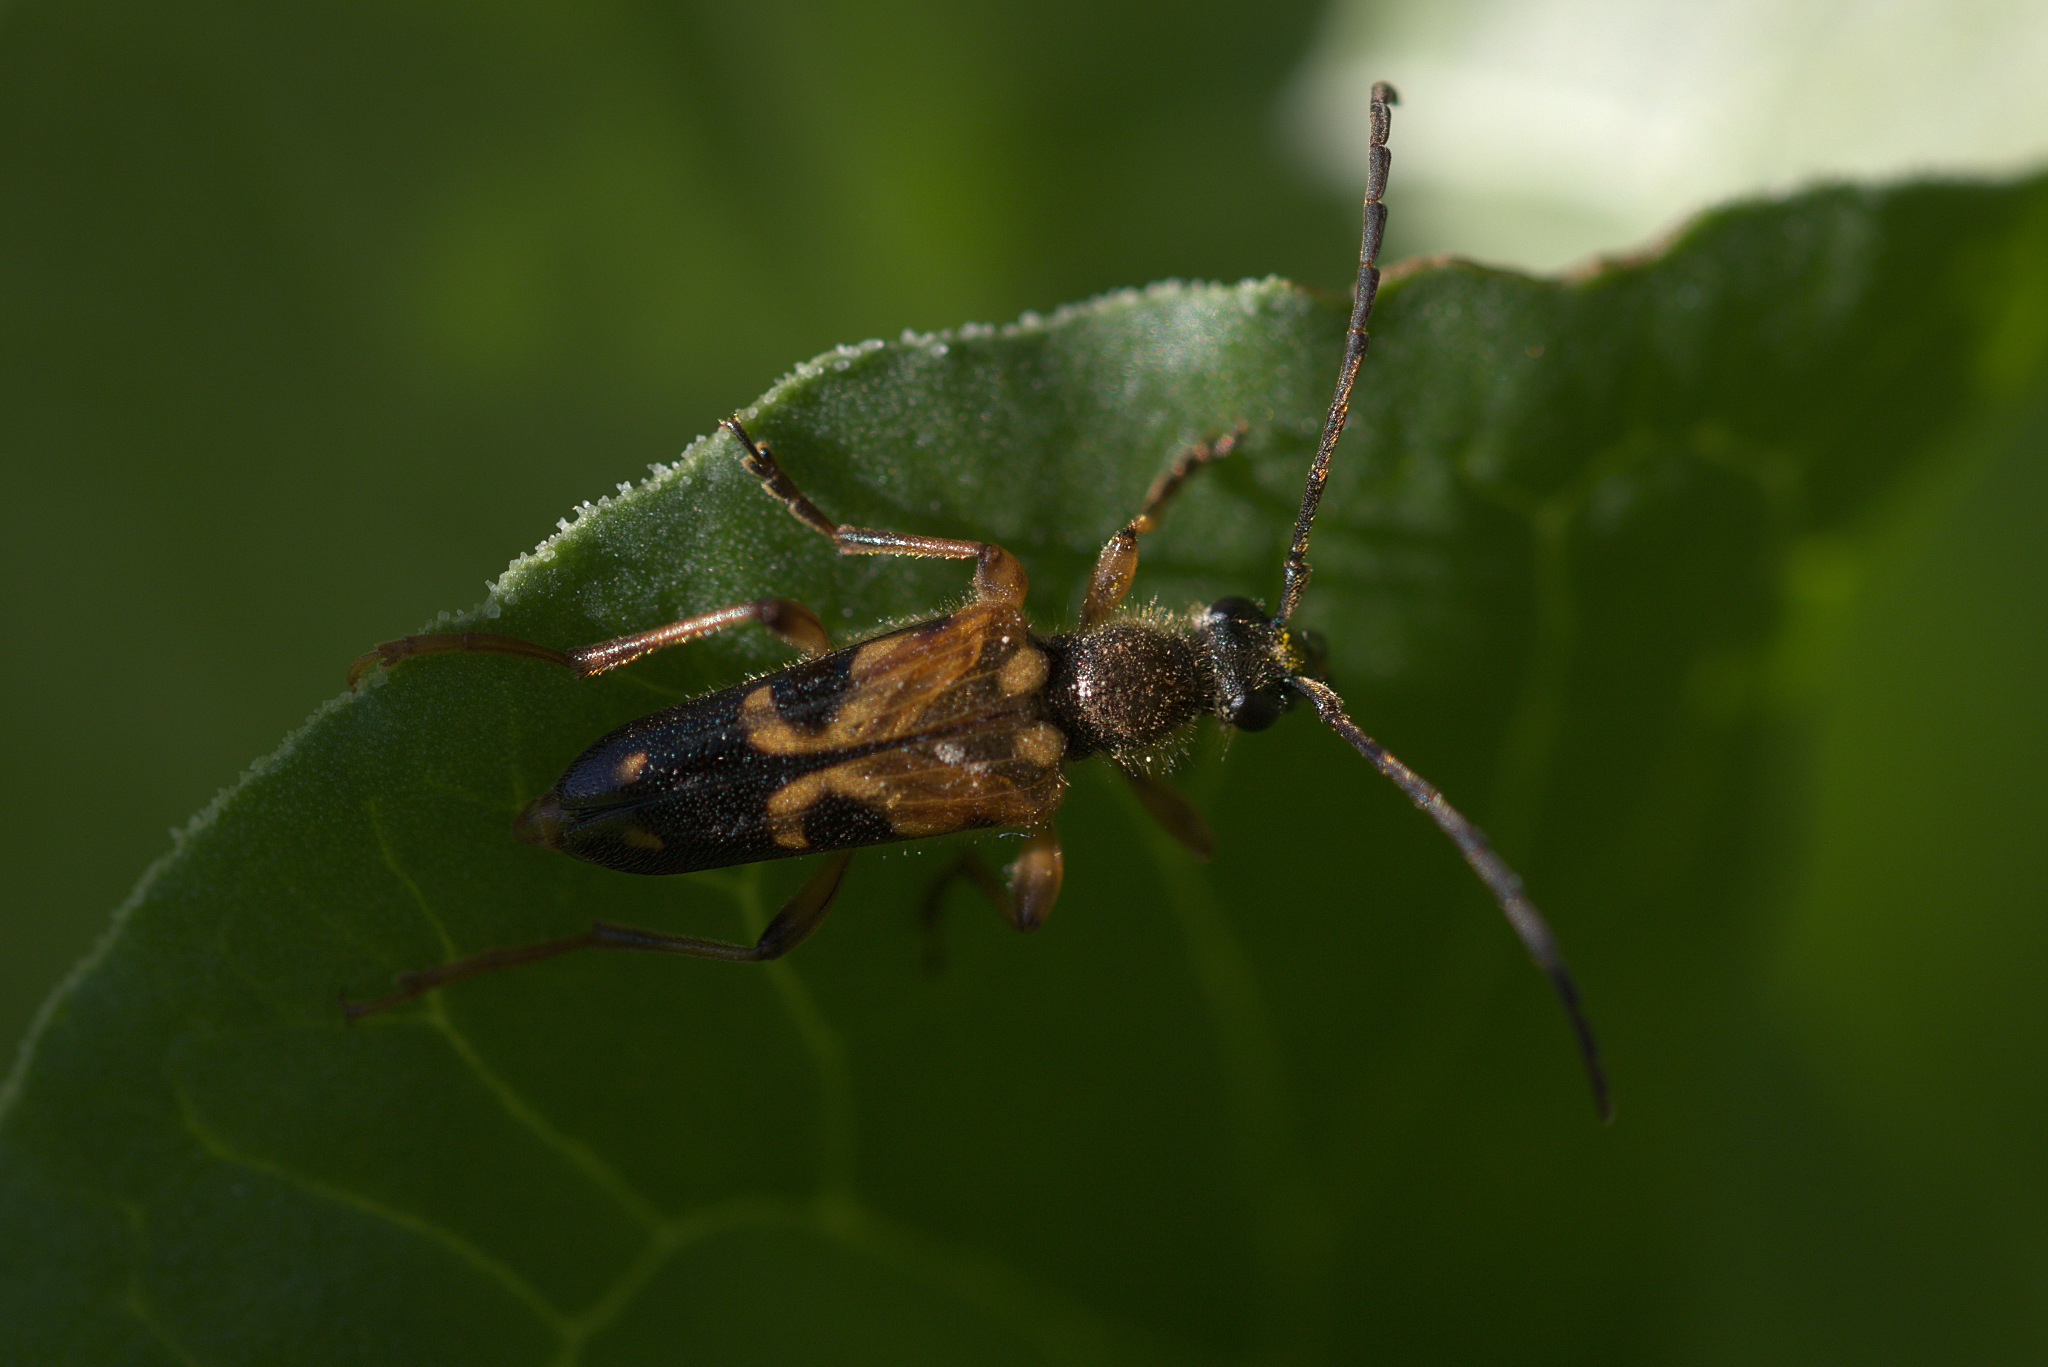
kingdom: Animalia
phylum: Arthropoda
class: Insecta
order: Coleoptera
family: Cerambycidae
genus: Xestoleptura
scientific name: Xestoleptura crassipes
